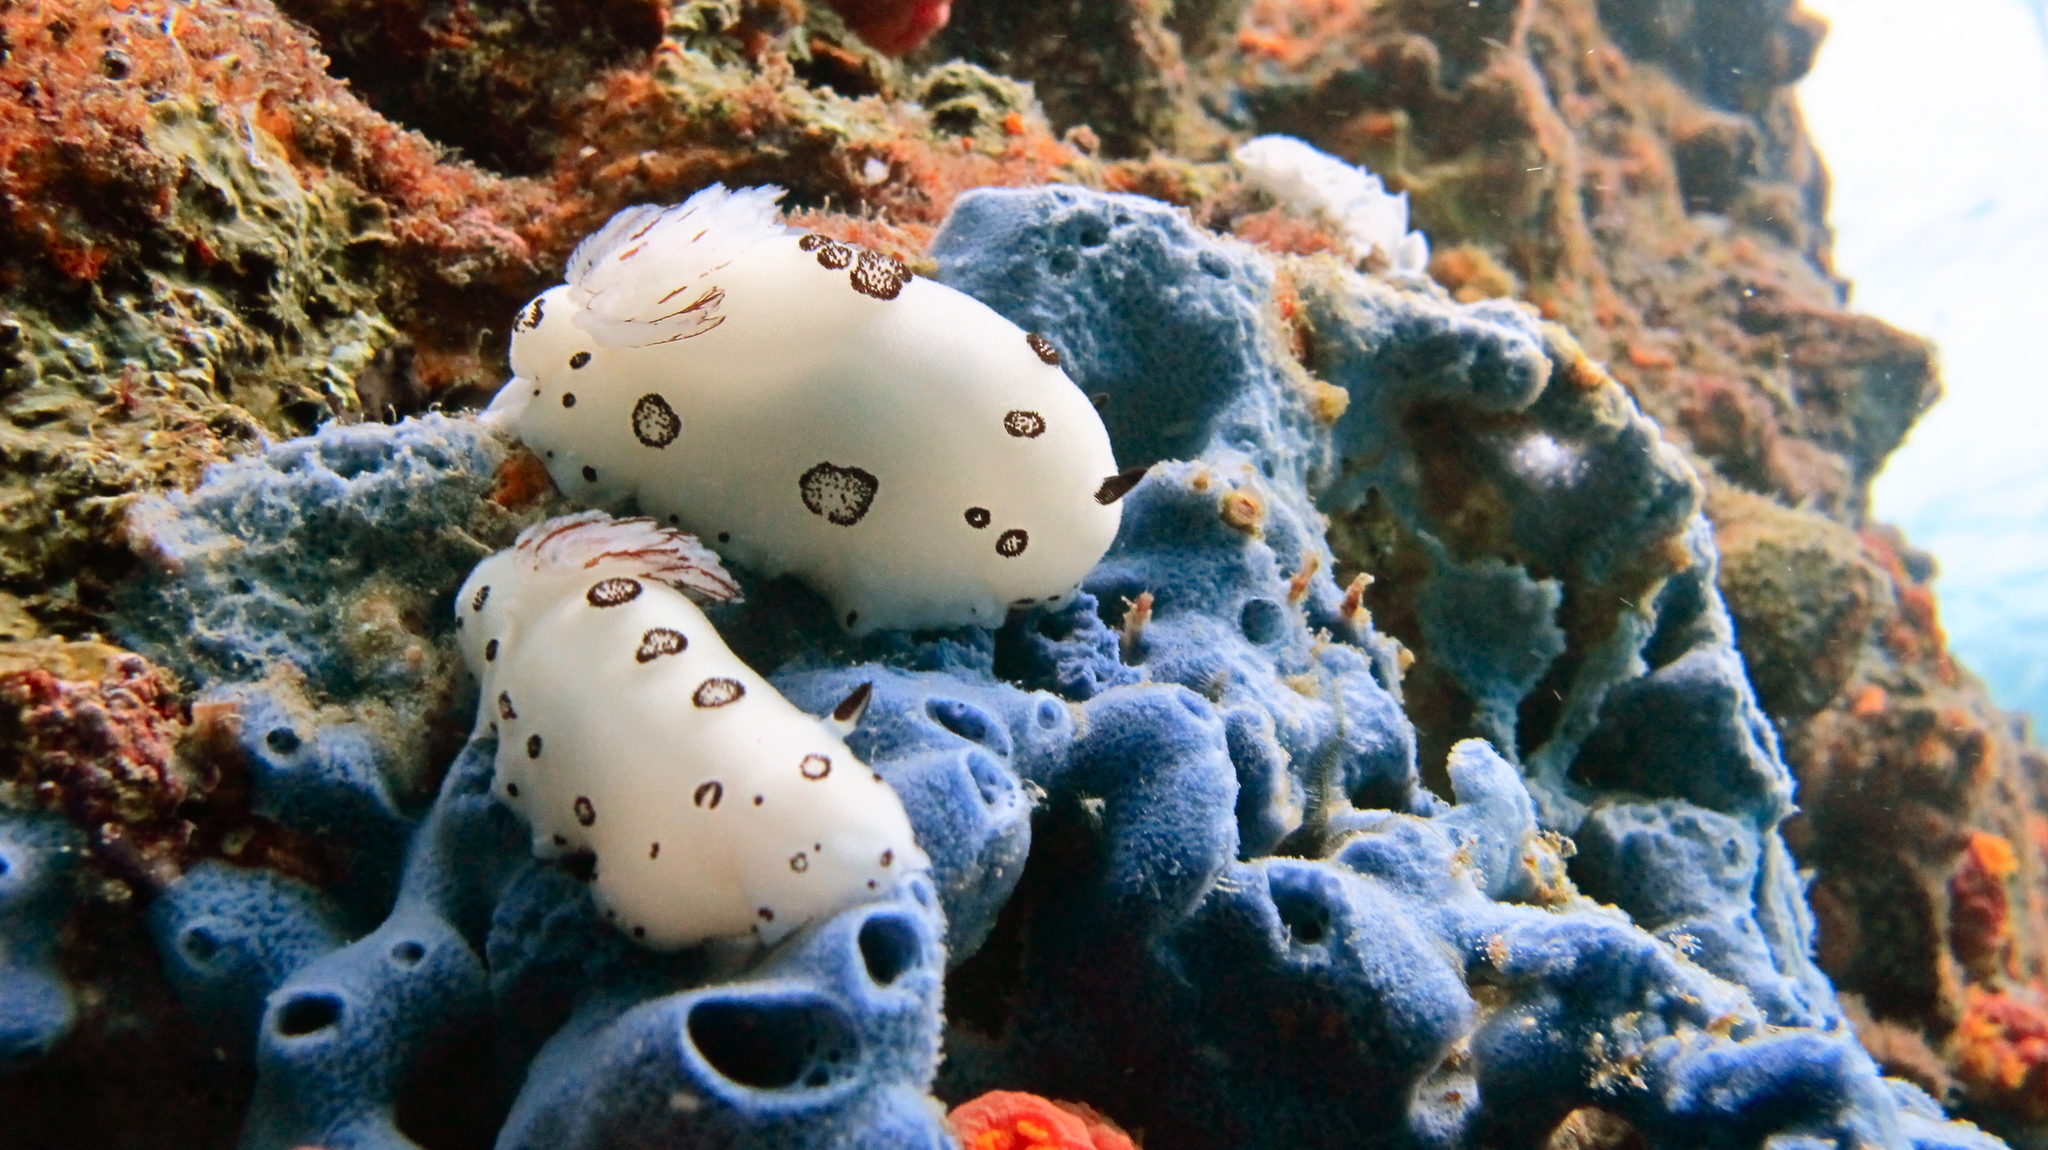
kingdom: Animalia
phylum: Mollusca
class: Gastropoda
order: Nudibranchia
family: Discodorididae
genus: Jorunna
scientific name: Jorunna funebris
